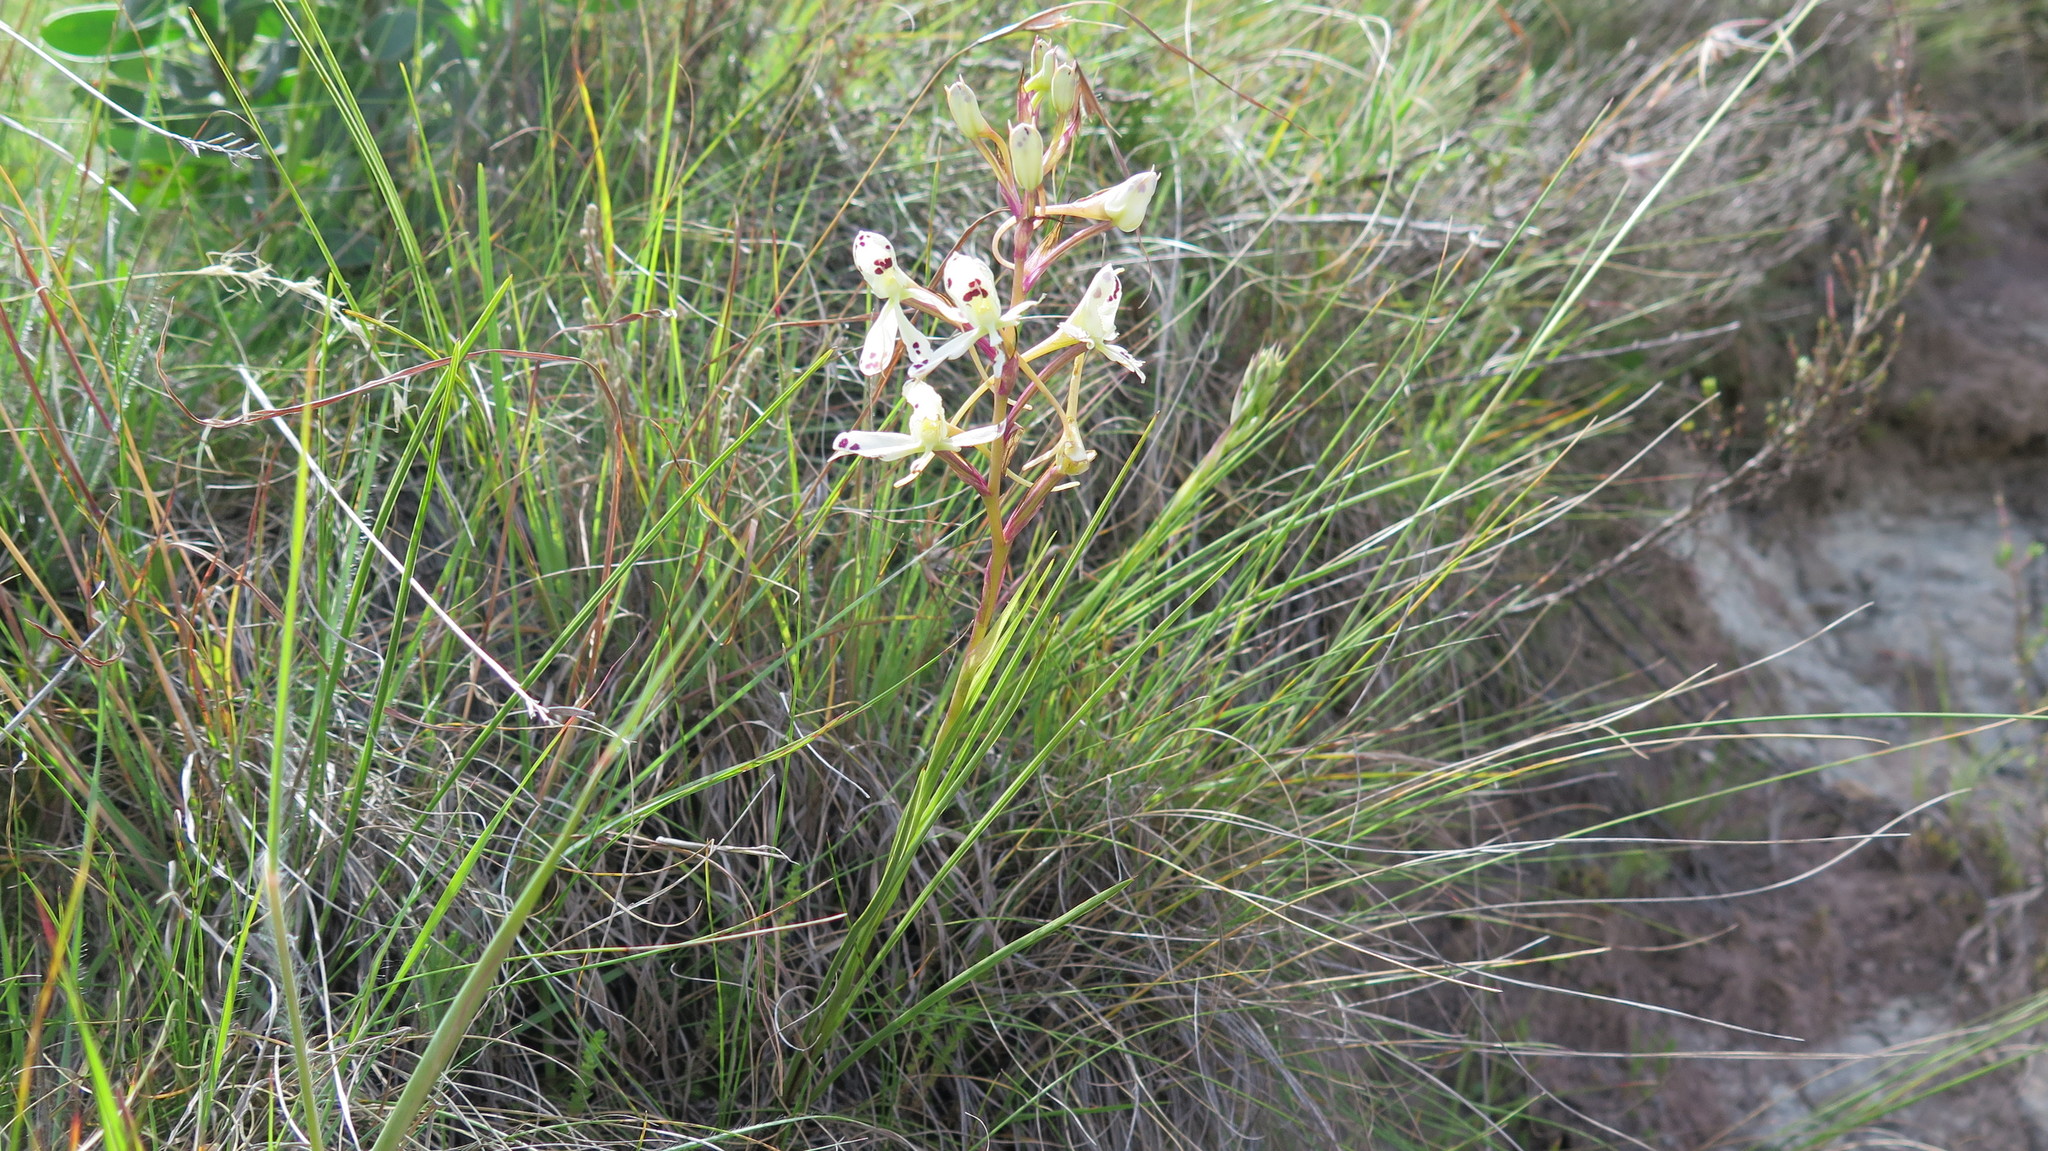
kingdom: Plantae
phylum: Tracheophyta
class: Liliopsida
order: Asparagales
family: Orchidaceae
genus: Disa
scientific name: Disa nivea
